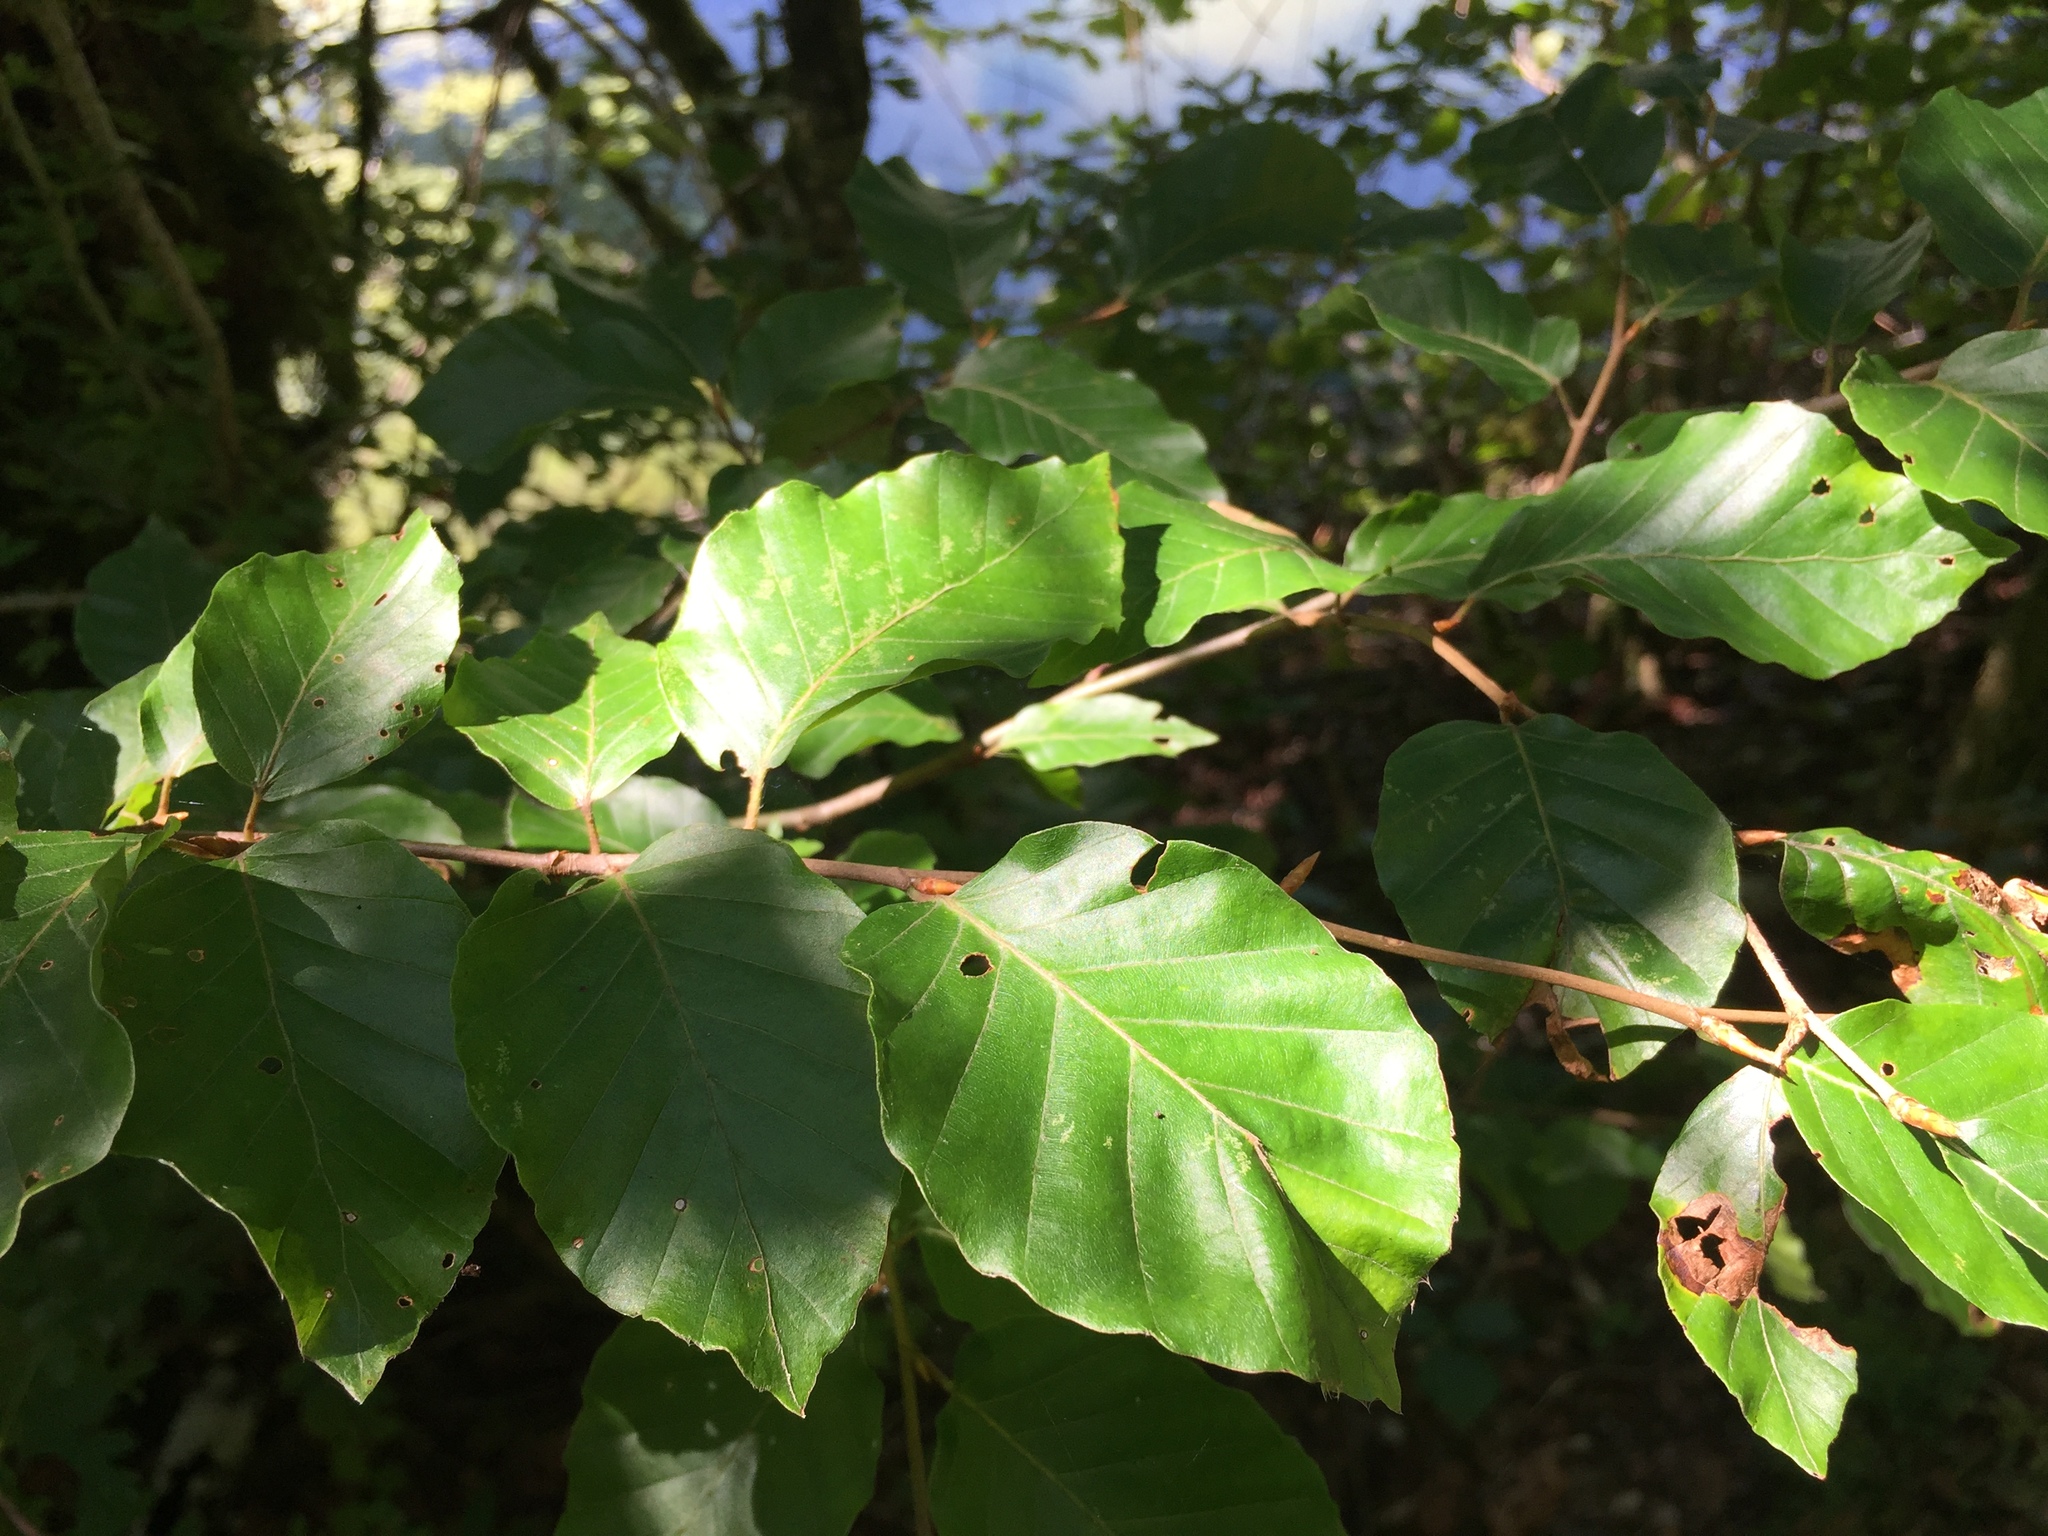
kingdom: Plantae
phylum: Tracheophyta
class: Magnoliopsida
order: Fagales
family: Fagaceae
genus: Fagus
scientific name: Fagus sylvatica
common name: Beech
